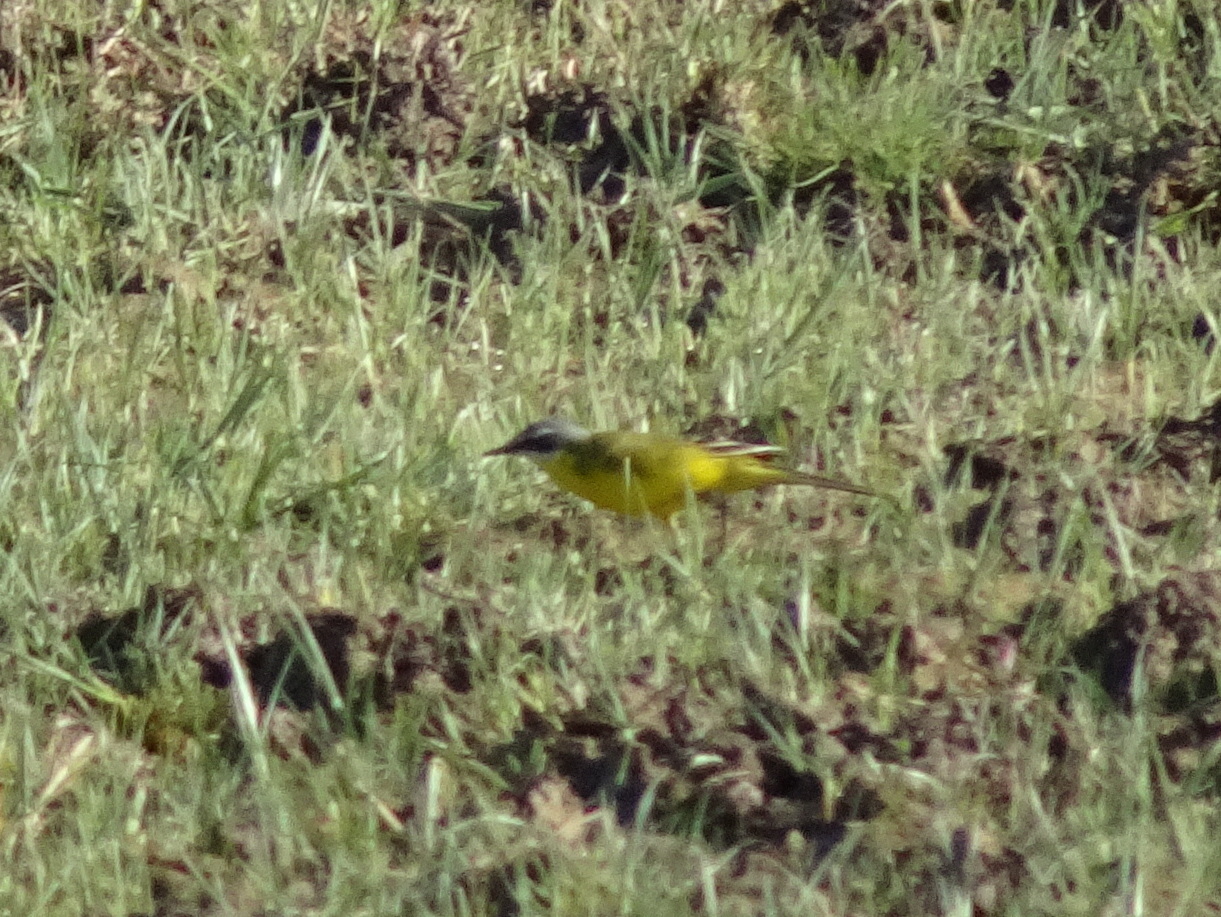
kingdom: Animalia
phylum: Chordata
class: Aves
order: Passeriformes
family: Motacillidae
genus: Motacilla
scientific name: Motacilla flava
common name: Western yellow wagtail
